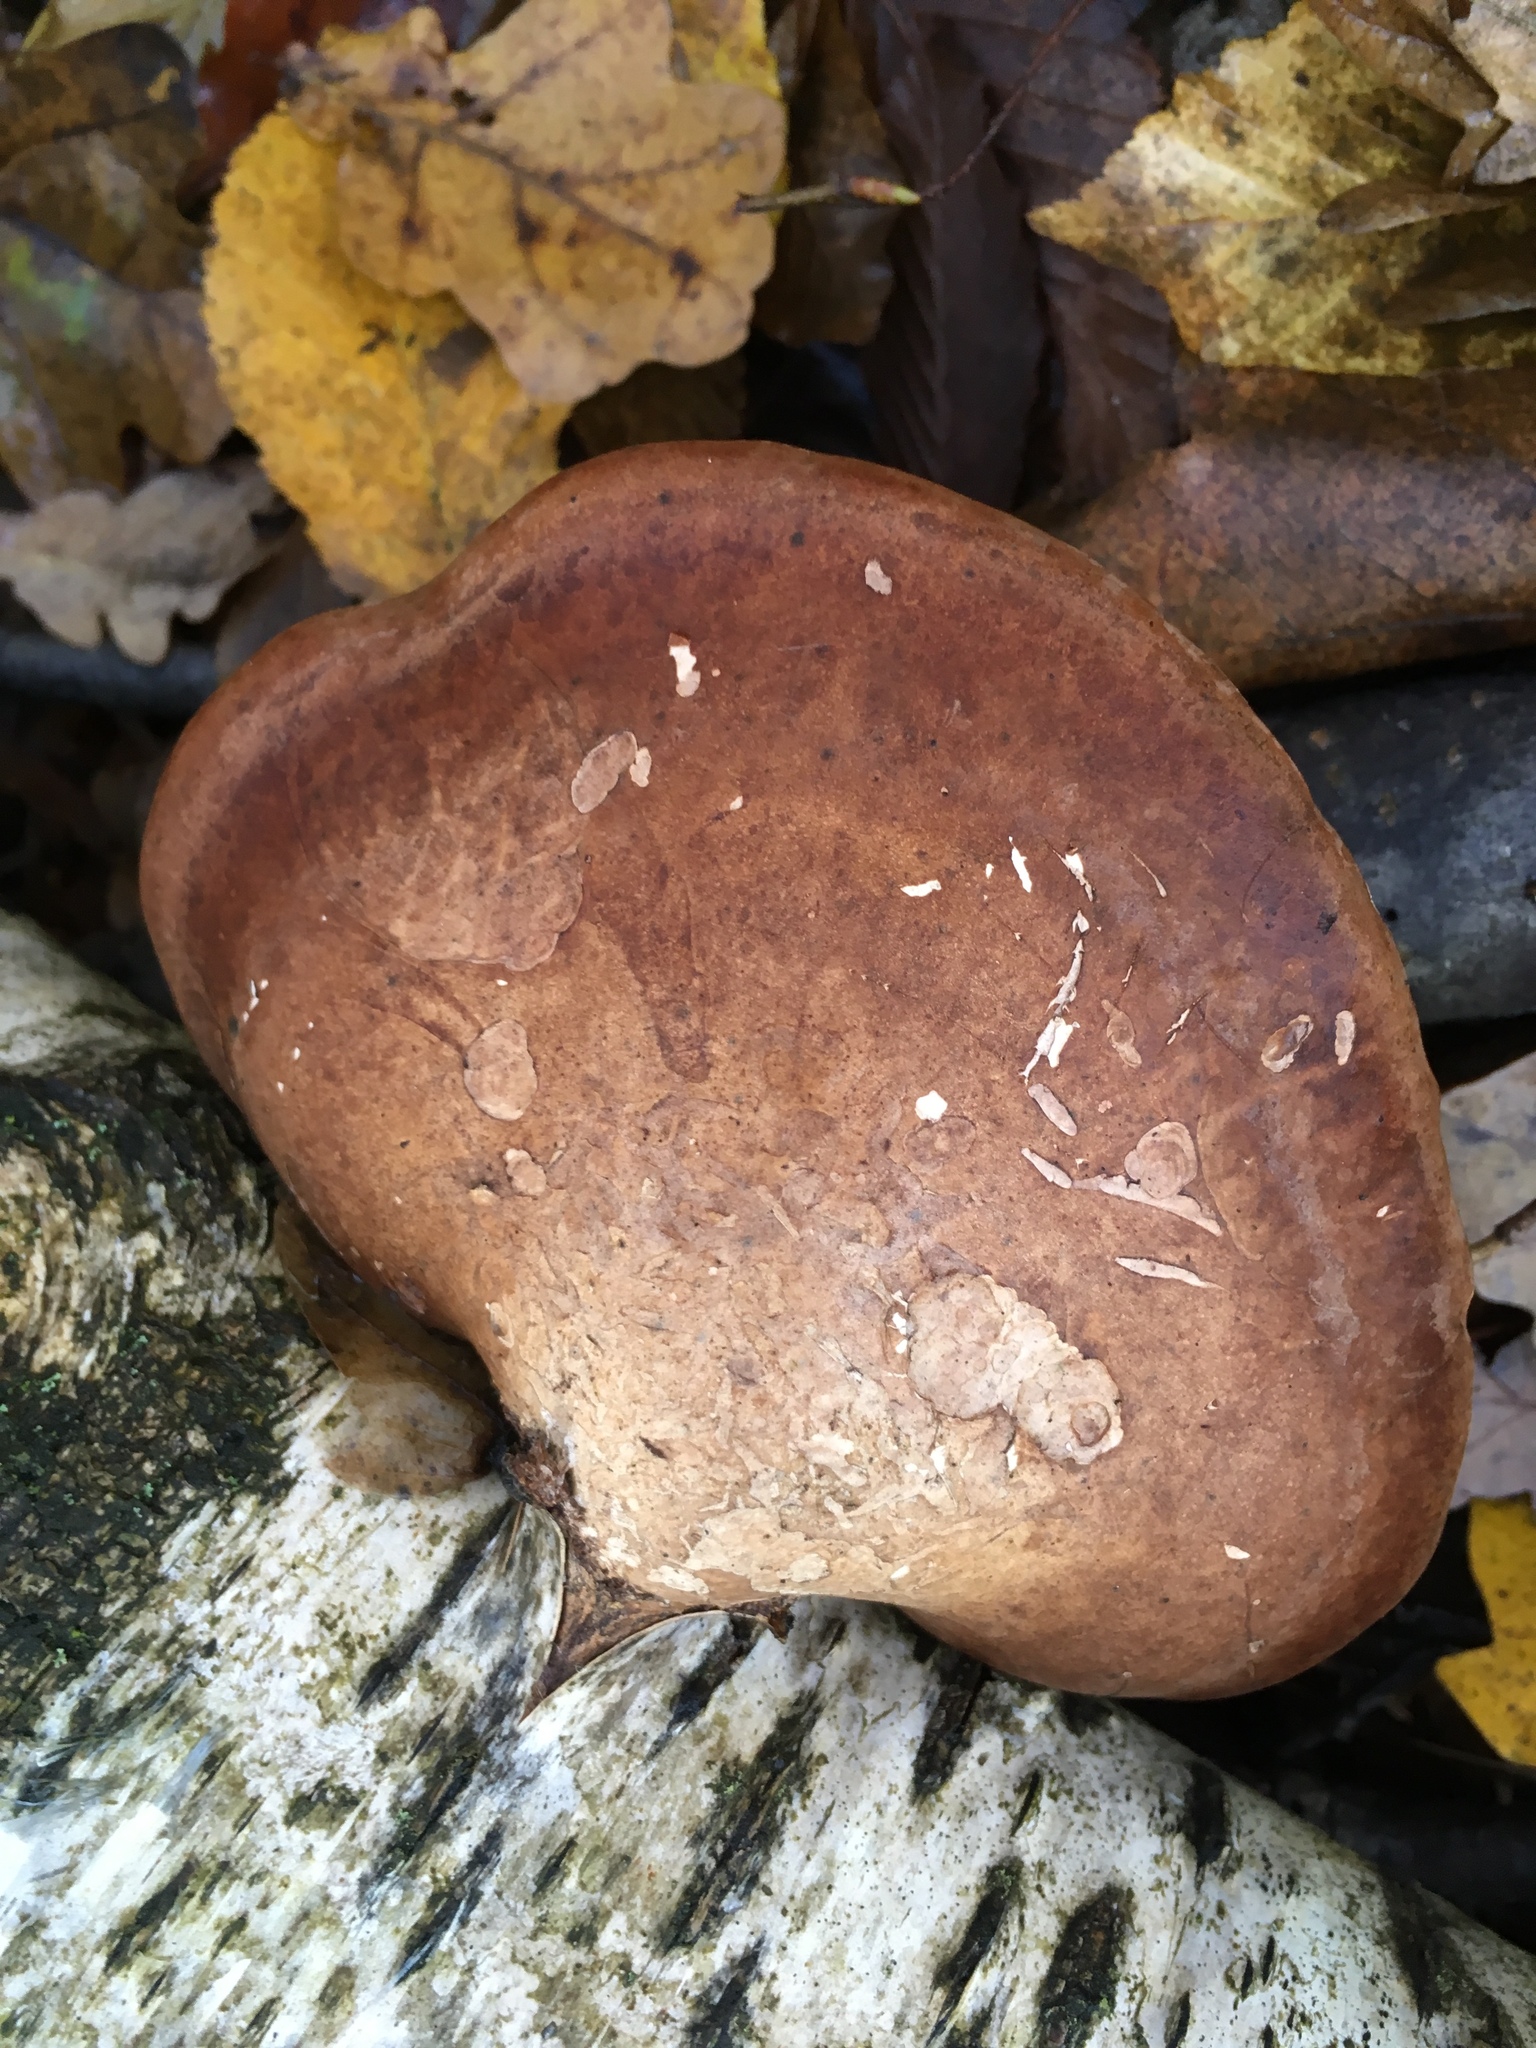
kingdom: Fungi
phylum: Basidiomycota
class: Agaricomycetes
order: Polyporales
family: Fomitopsidaceae
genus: Fomitopsis
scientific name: Fomitopsis betulina
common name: Birch polypore
